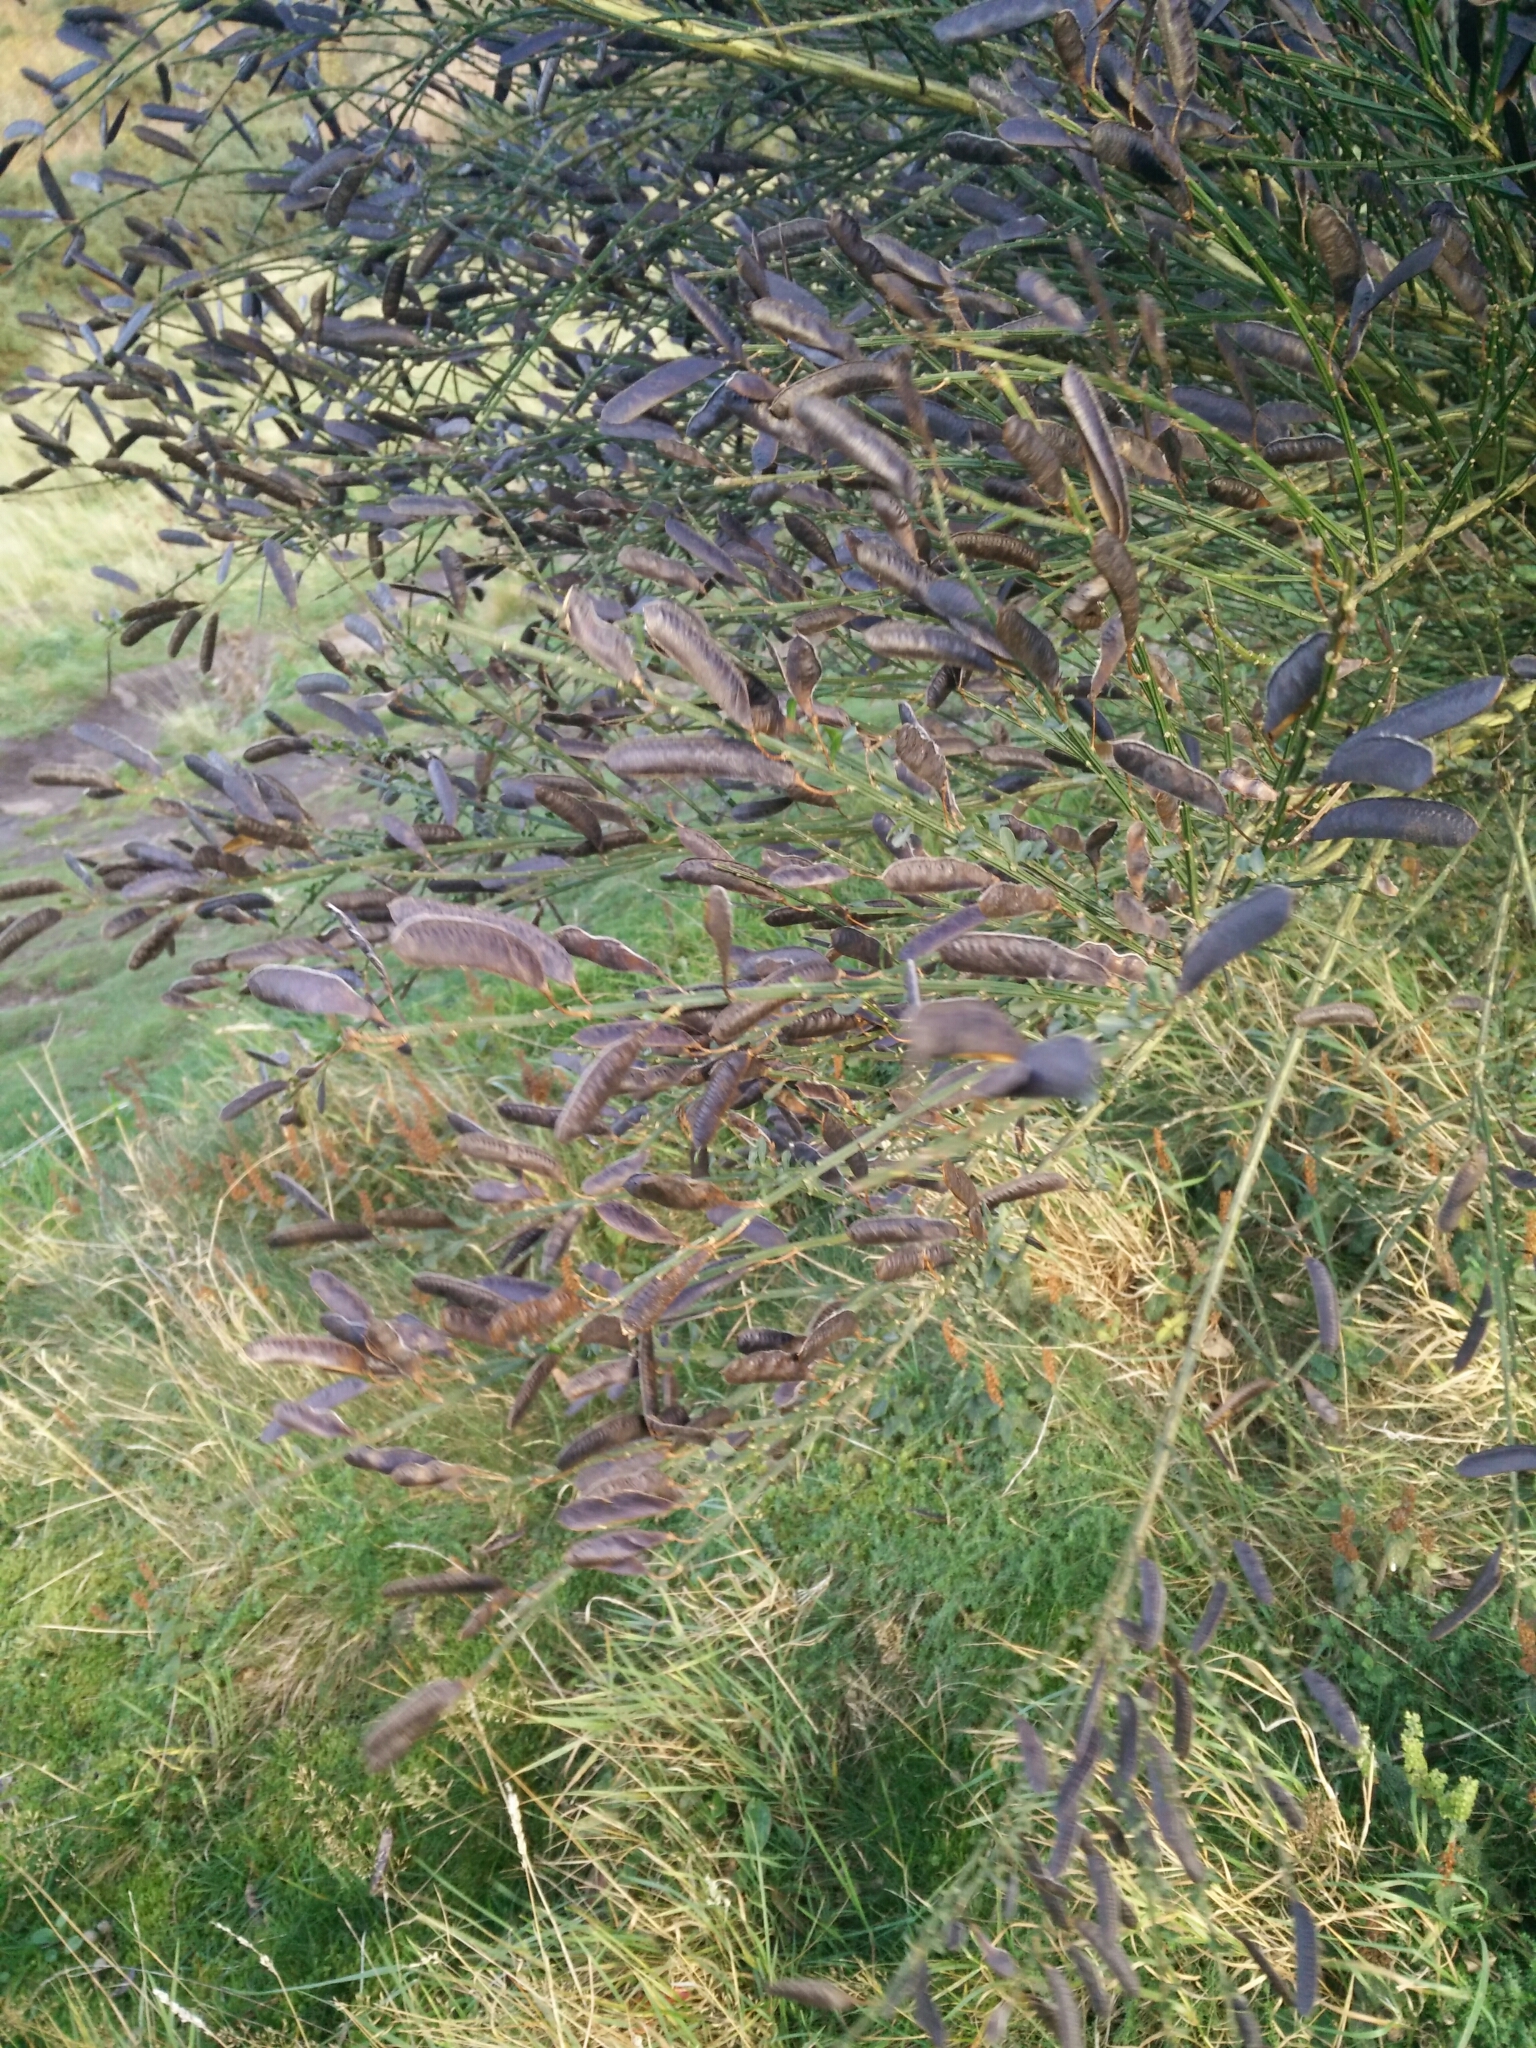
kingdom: Plantae
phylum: Tracheophyta
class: Magnoliopsida
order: Fabales
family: Fabaceae
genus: Cytisus
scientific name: Cytisus scoparius
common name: Scotch broom
